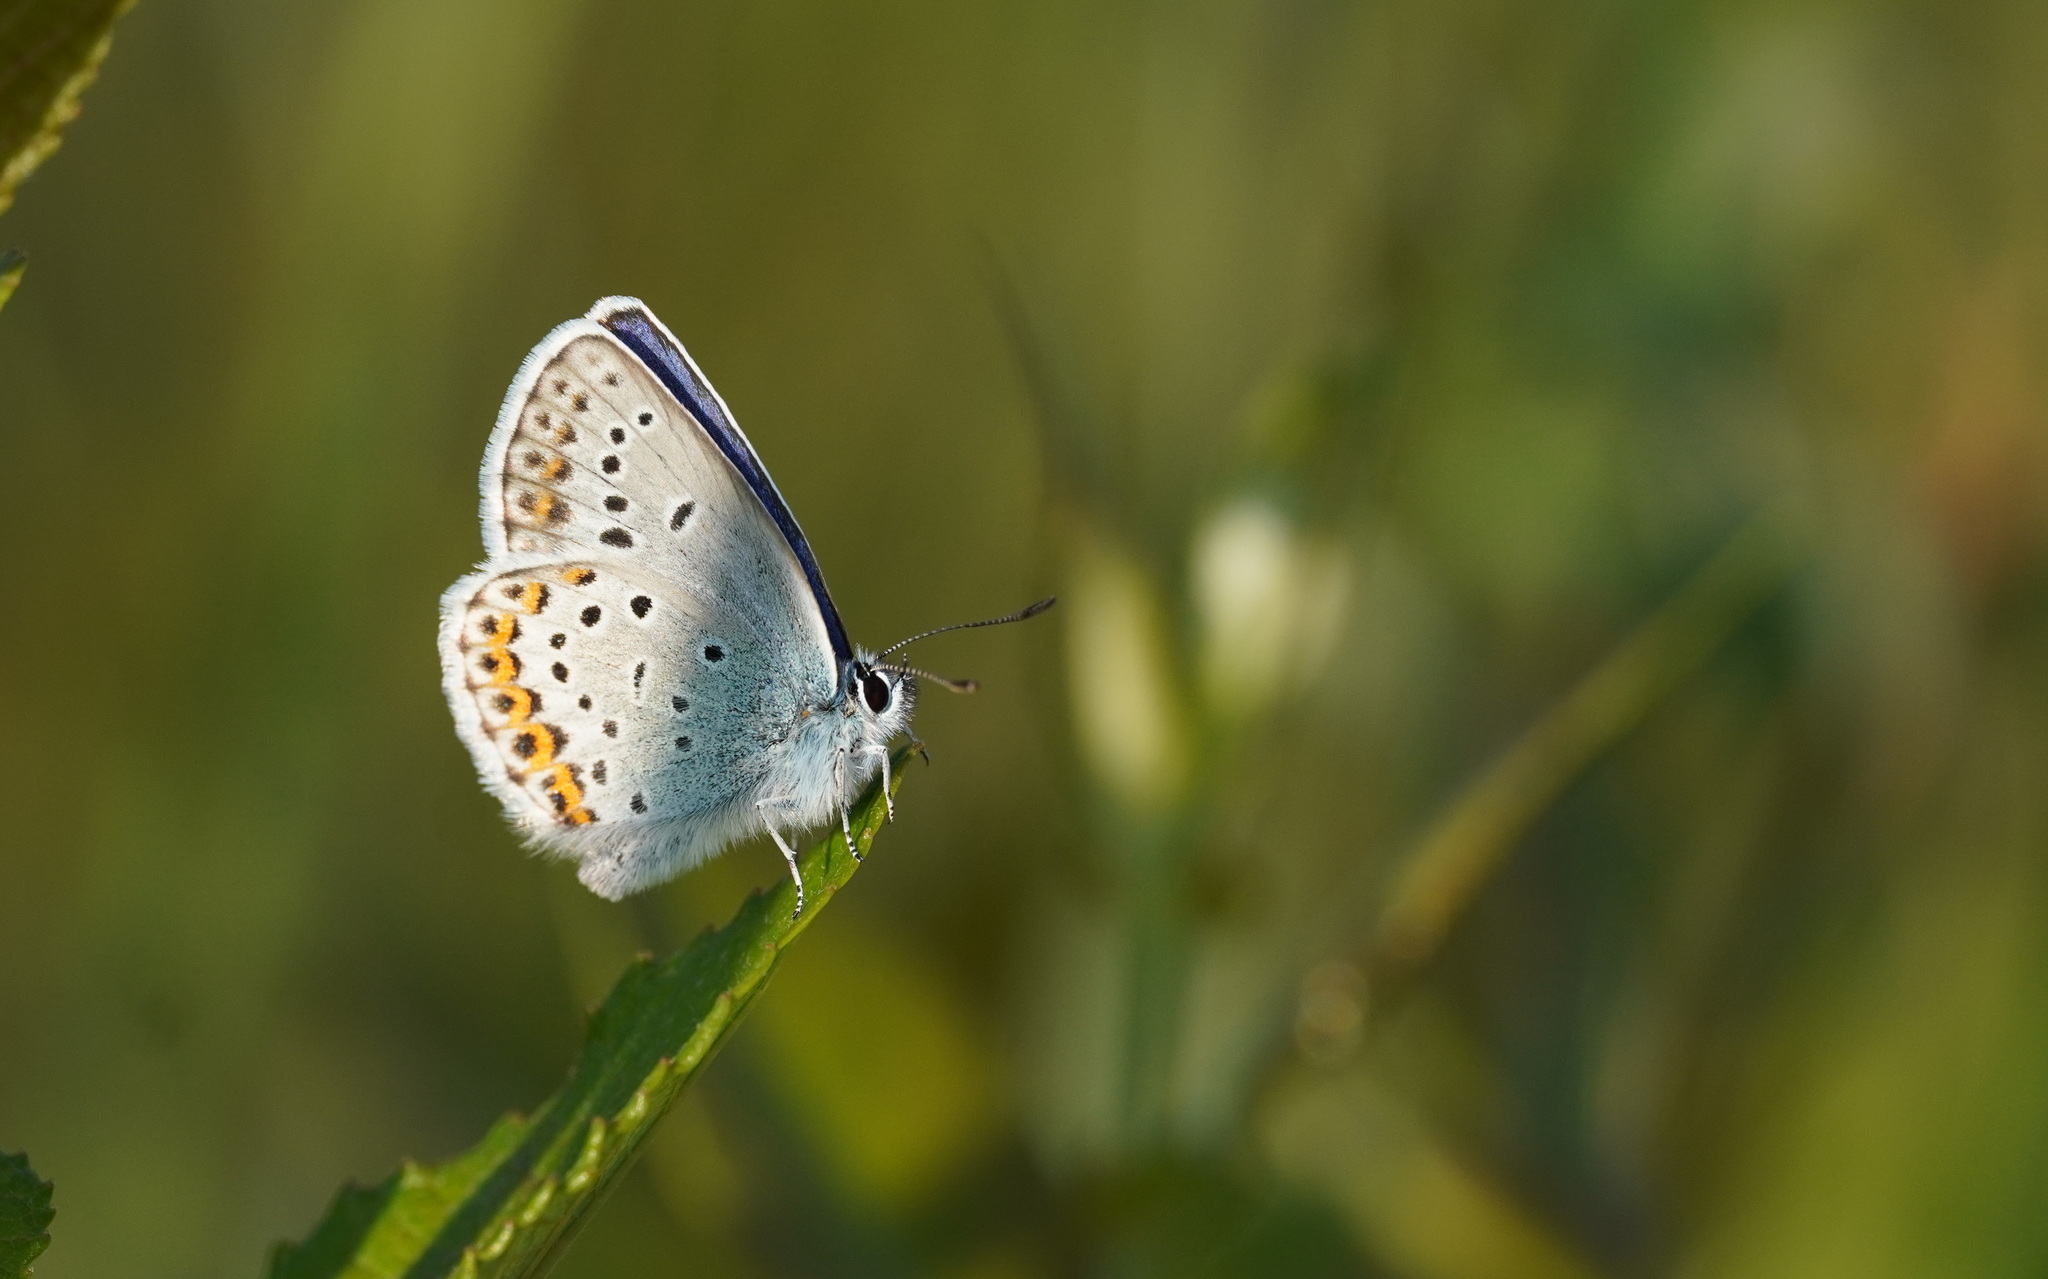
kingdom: Animalia
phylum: Arthropoda
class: Insecta
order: Lepidoptera
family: Lycaenidae
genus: Lycaeides
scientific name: Lycaeides idas
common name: Northern blue
